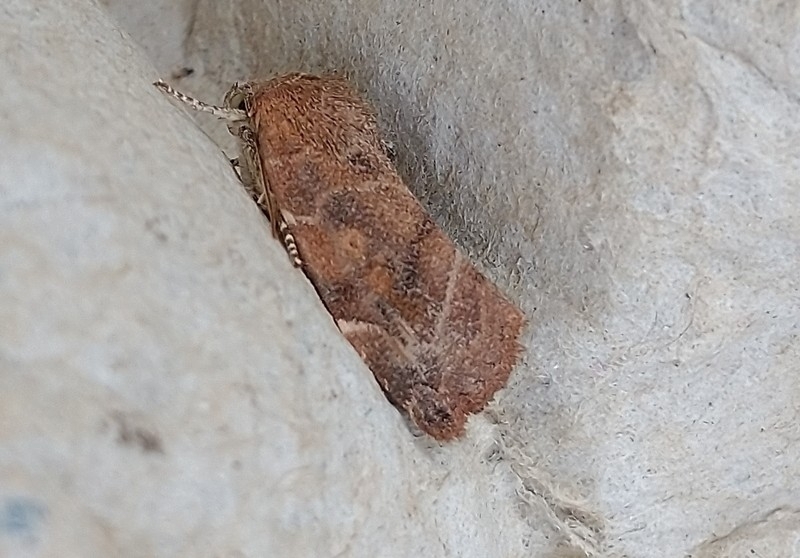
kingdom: Animalia
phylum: Arthropoda
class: Insecta
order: Lepidoptera
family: Noctuidae
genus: Cosmia
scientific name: Cosmia affinis
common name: Lesser-spotted pinion
